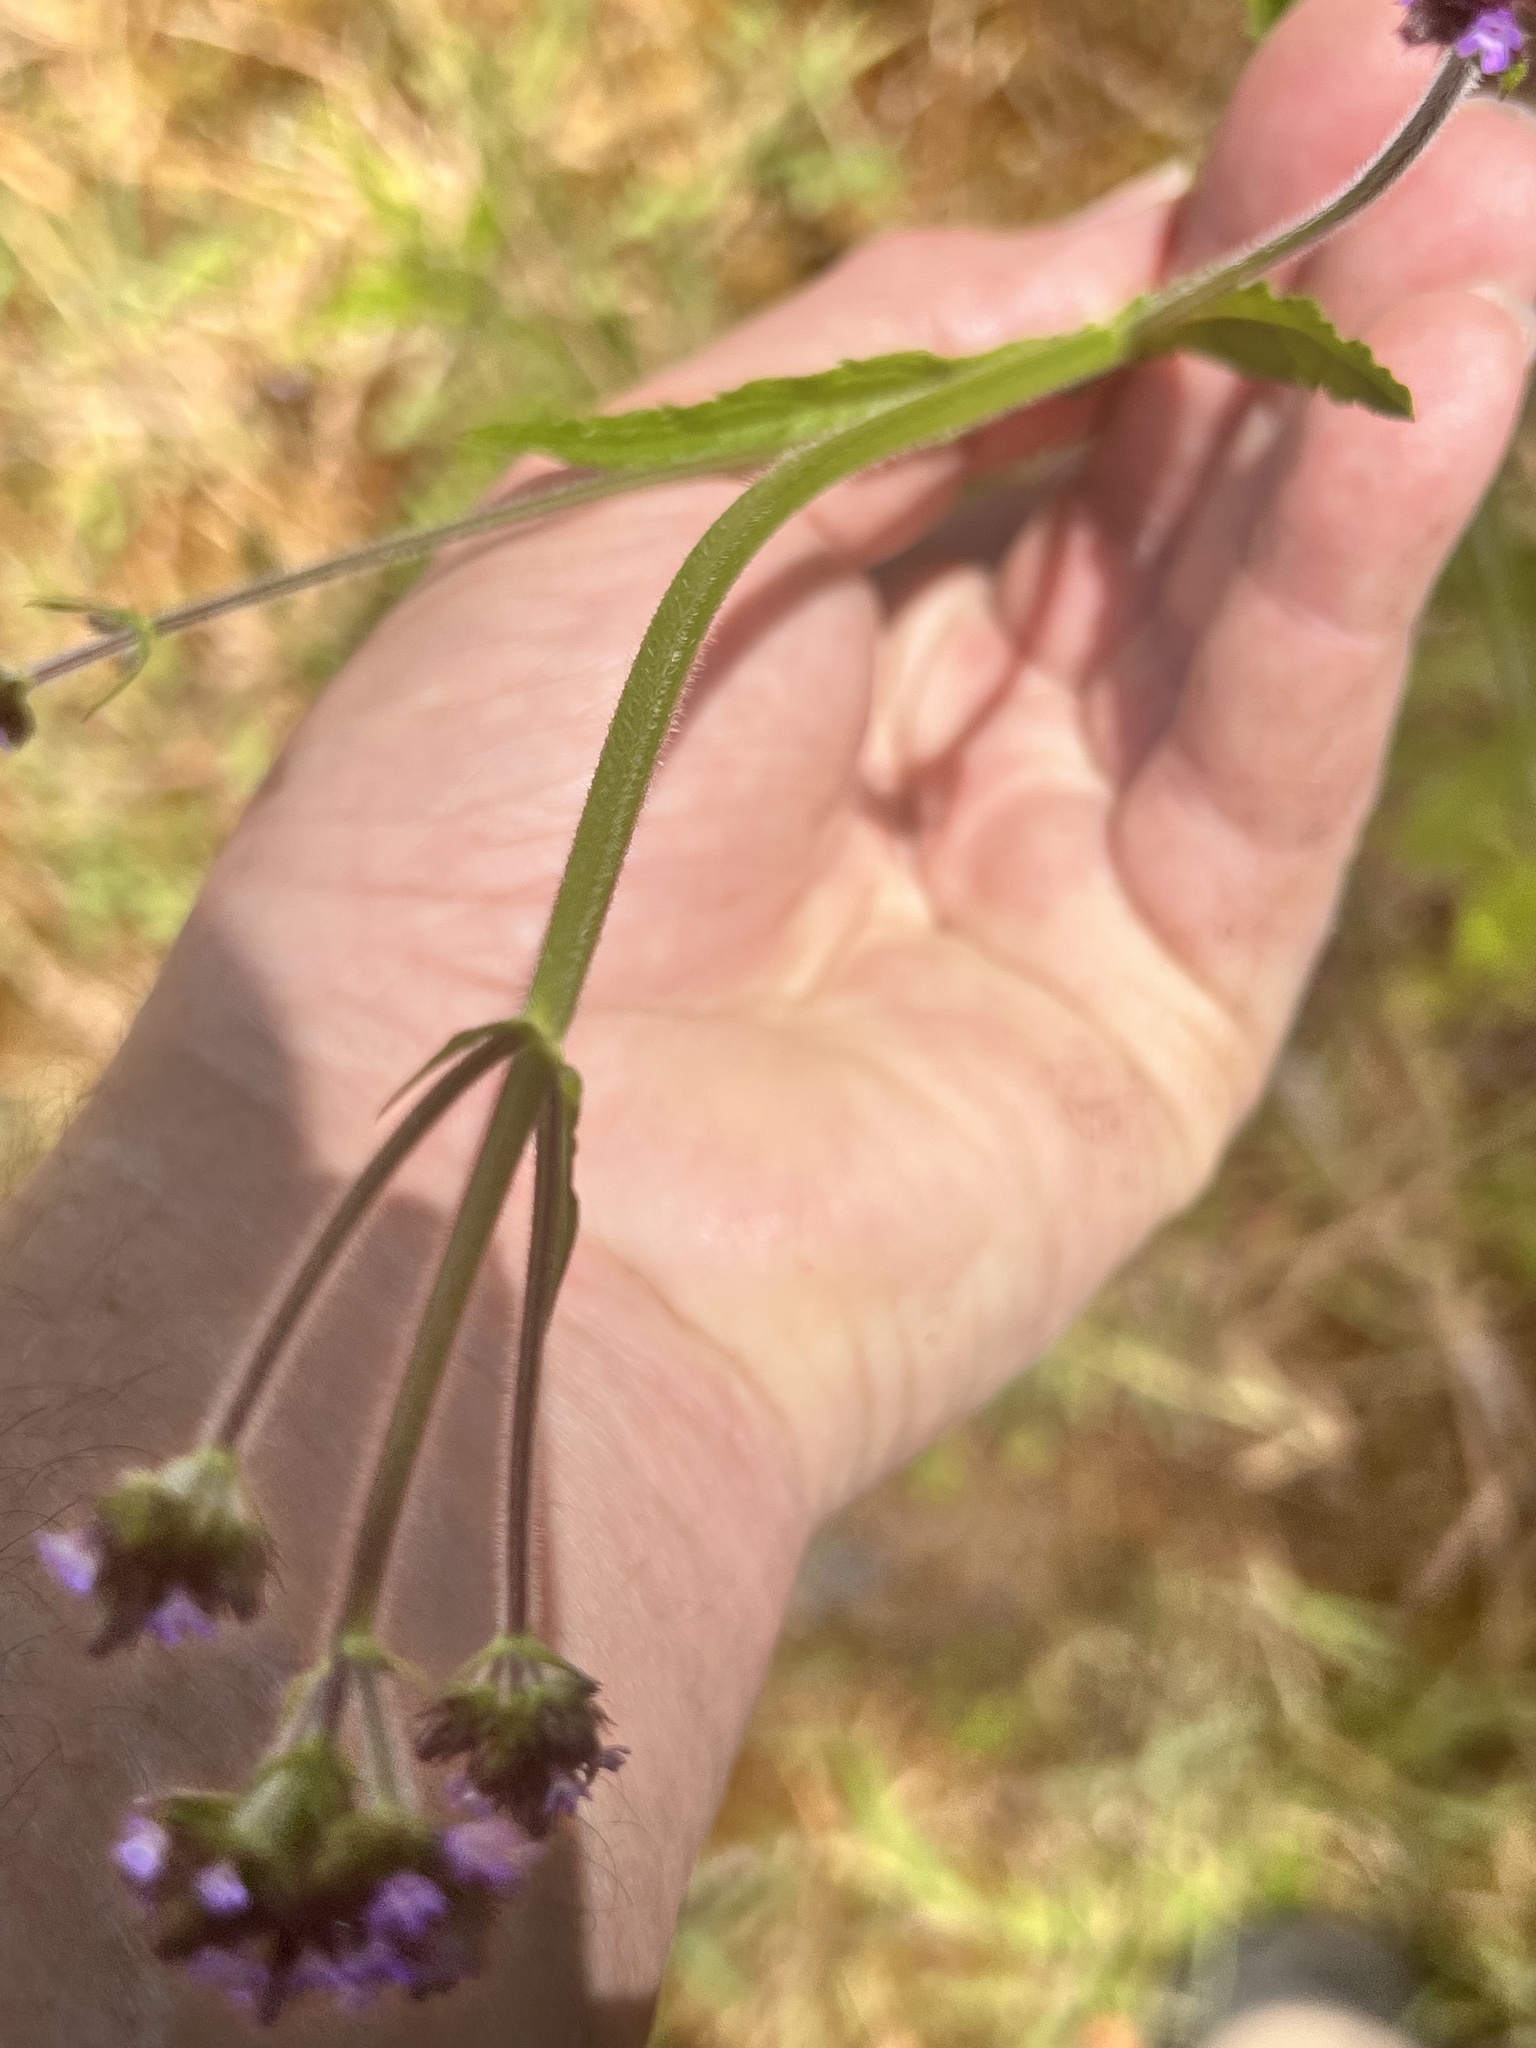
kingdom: Plantae
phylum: Tracheophyta
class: Magnoliopsida
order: Lamiales
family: Verbenaceae
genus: Verbena
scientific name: Verbena incompta
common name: Purpletop vervain
